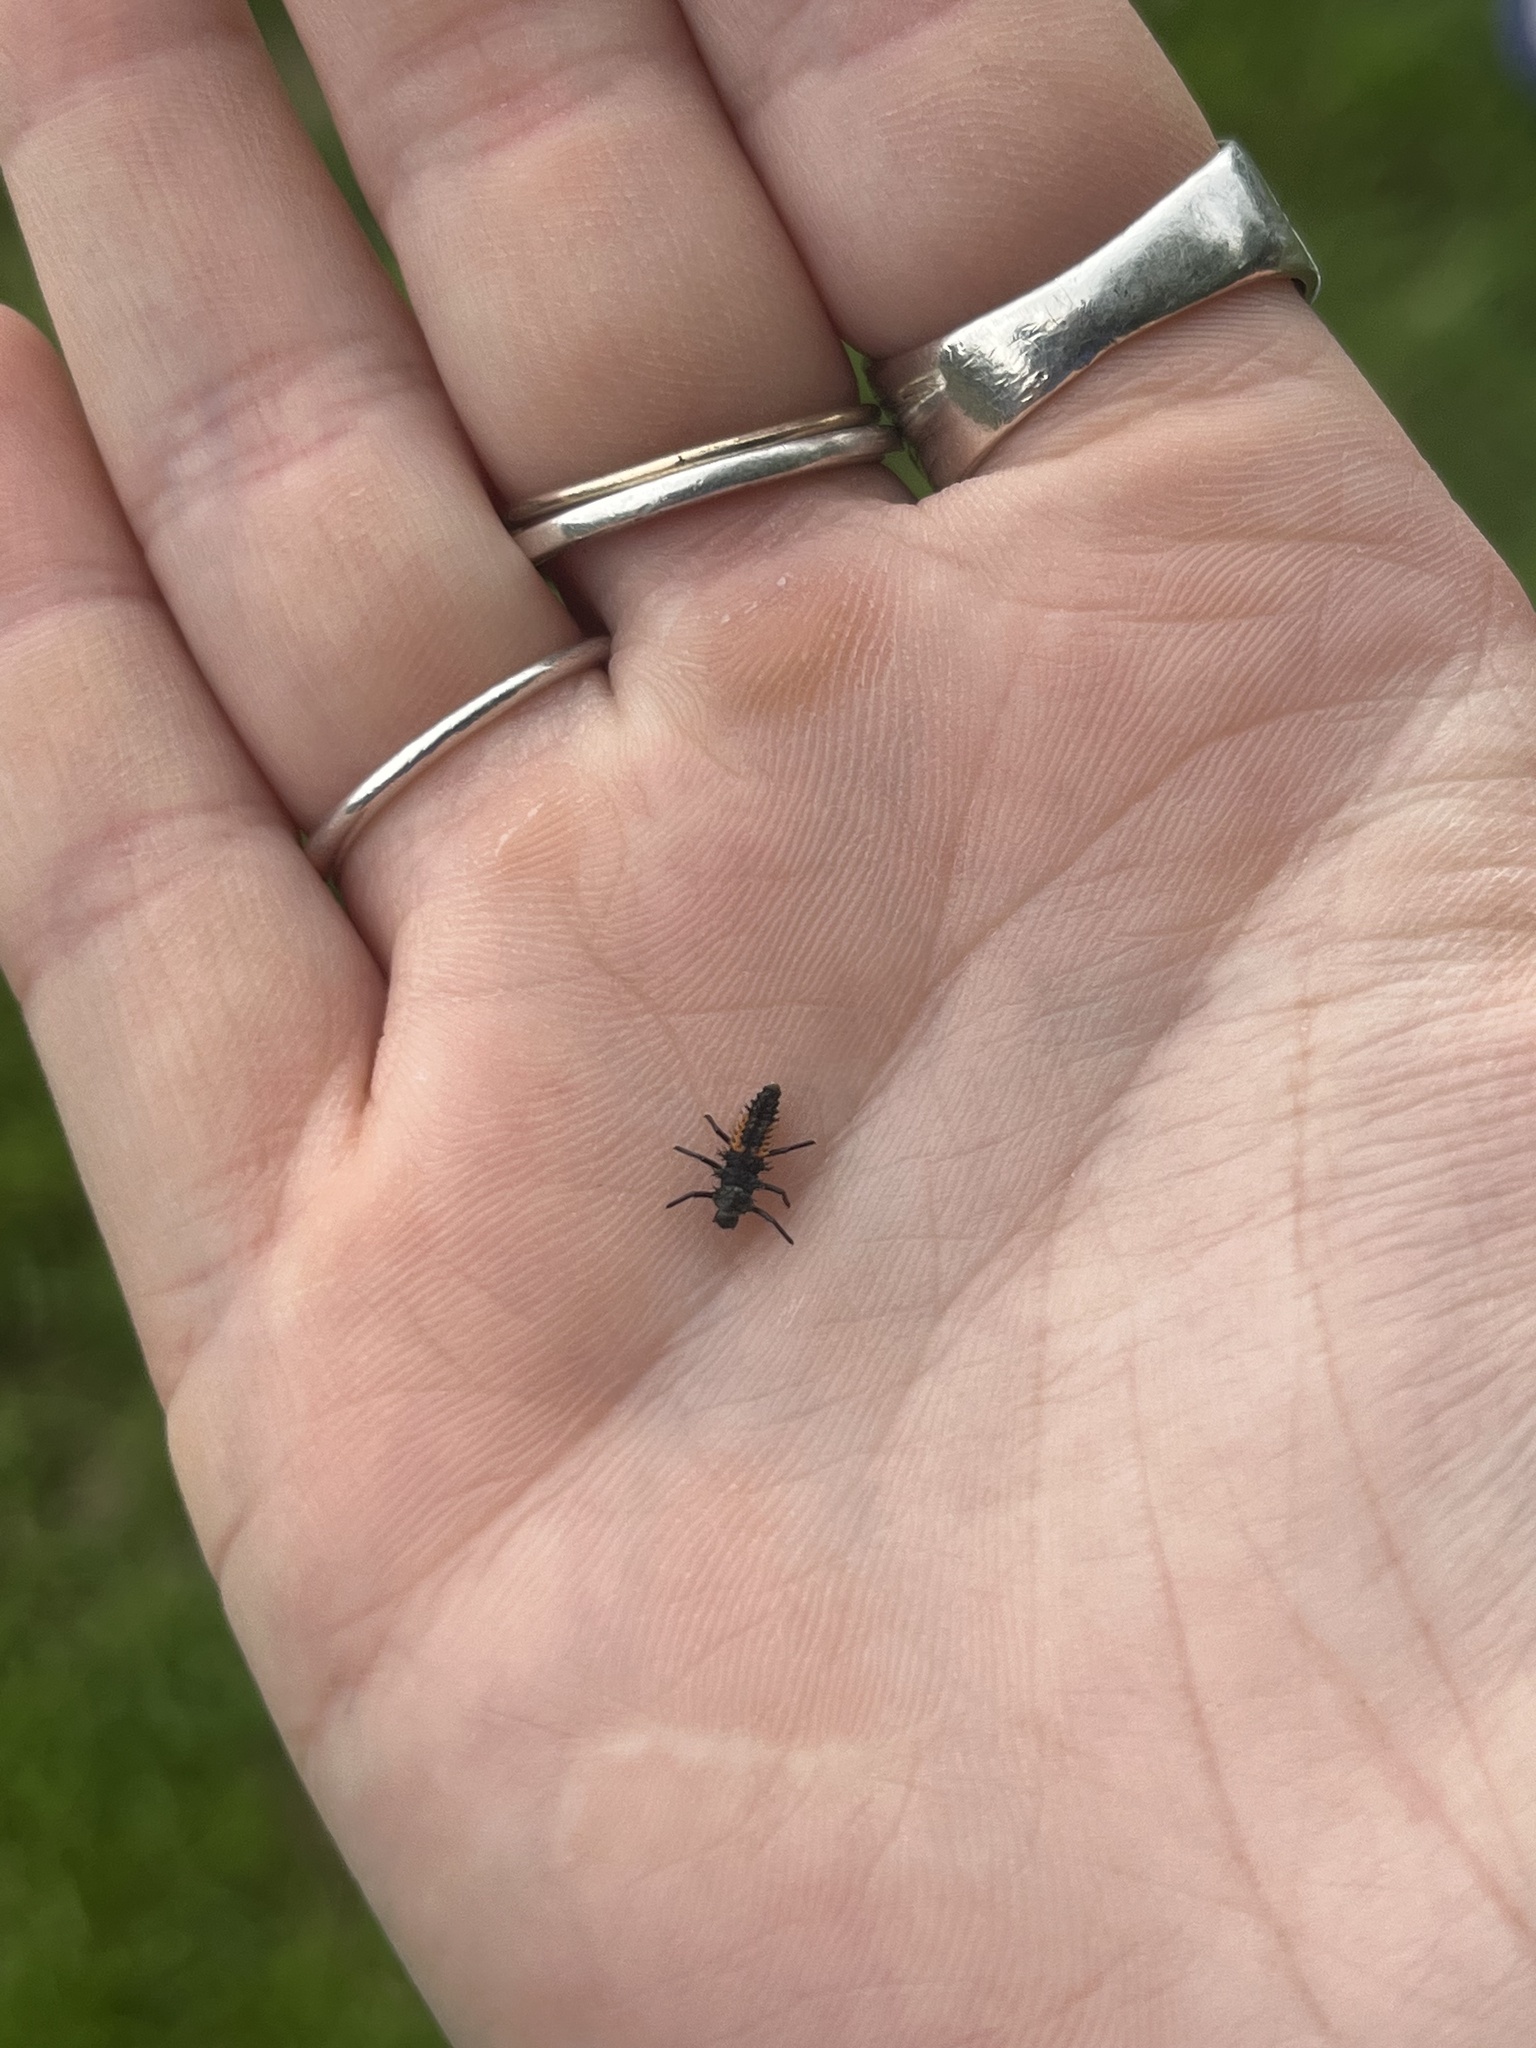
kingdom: Animalia
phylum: Arthropoda
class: Insecta
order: Coleoptera
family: Coccinellidae
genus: Harmonia
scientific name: Harmonia axyridis
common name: Harlequin ladybird
